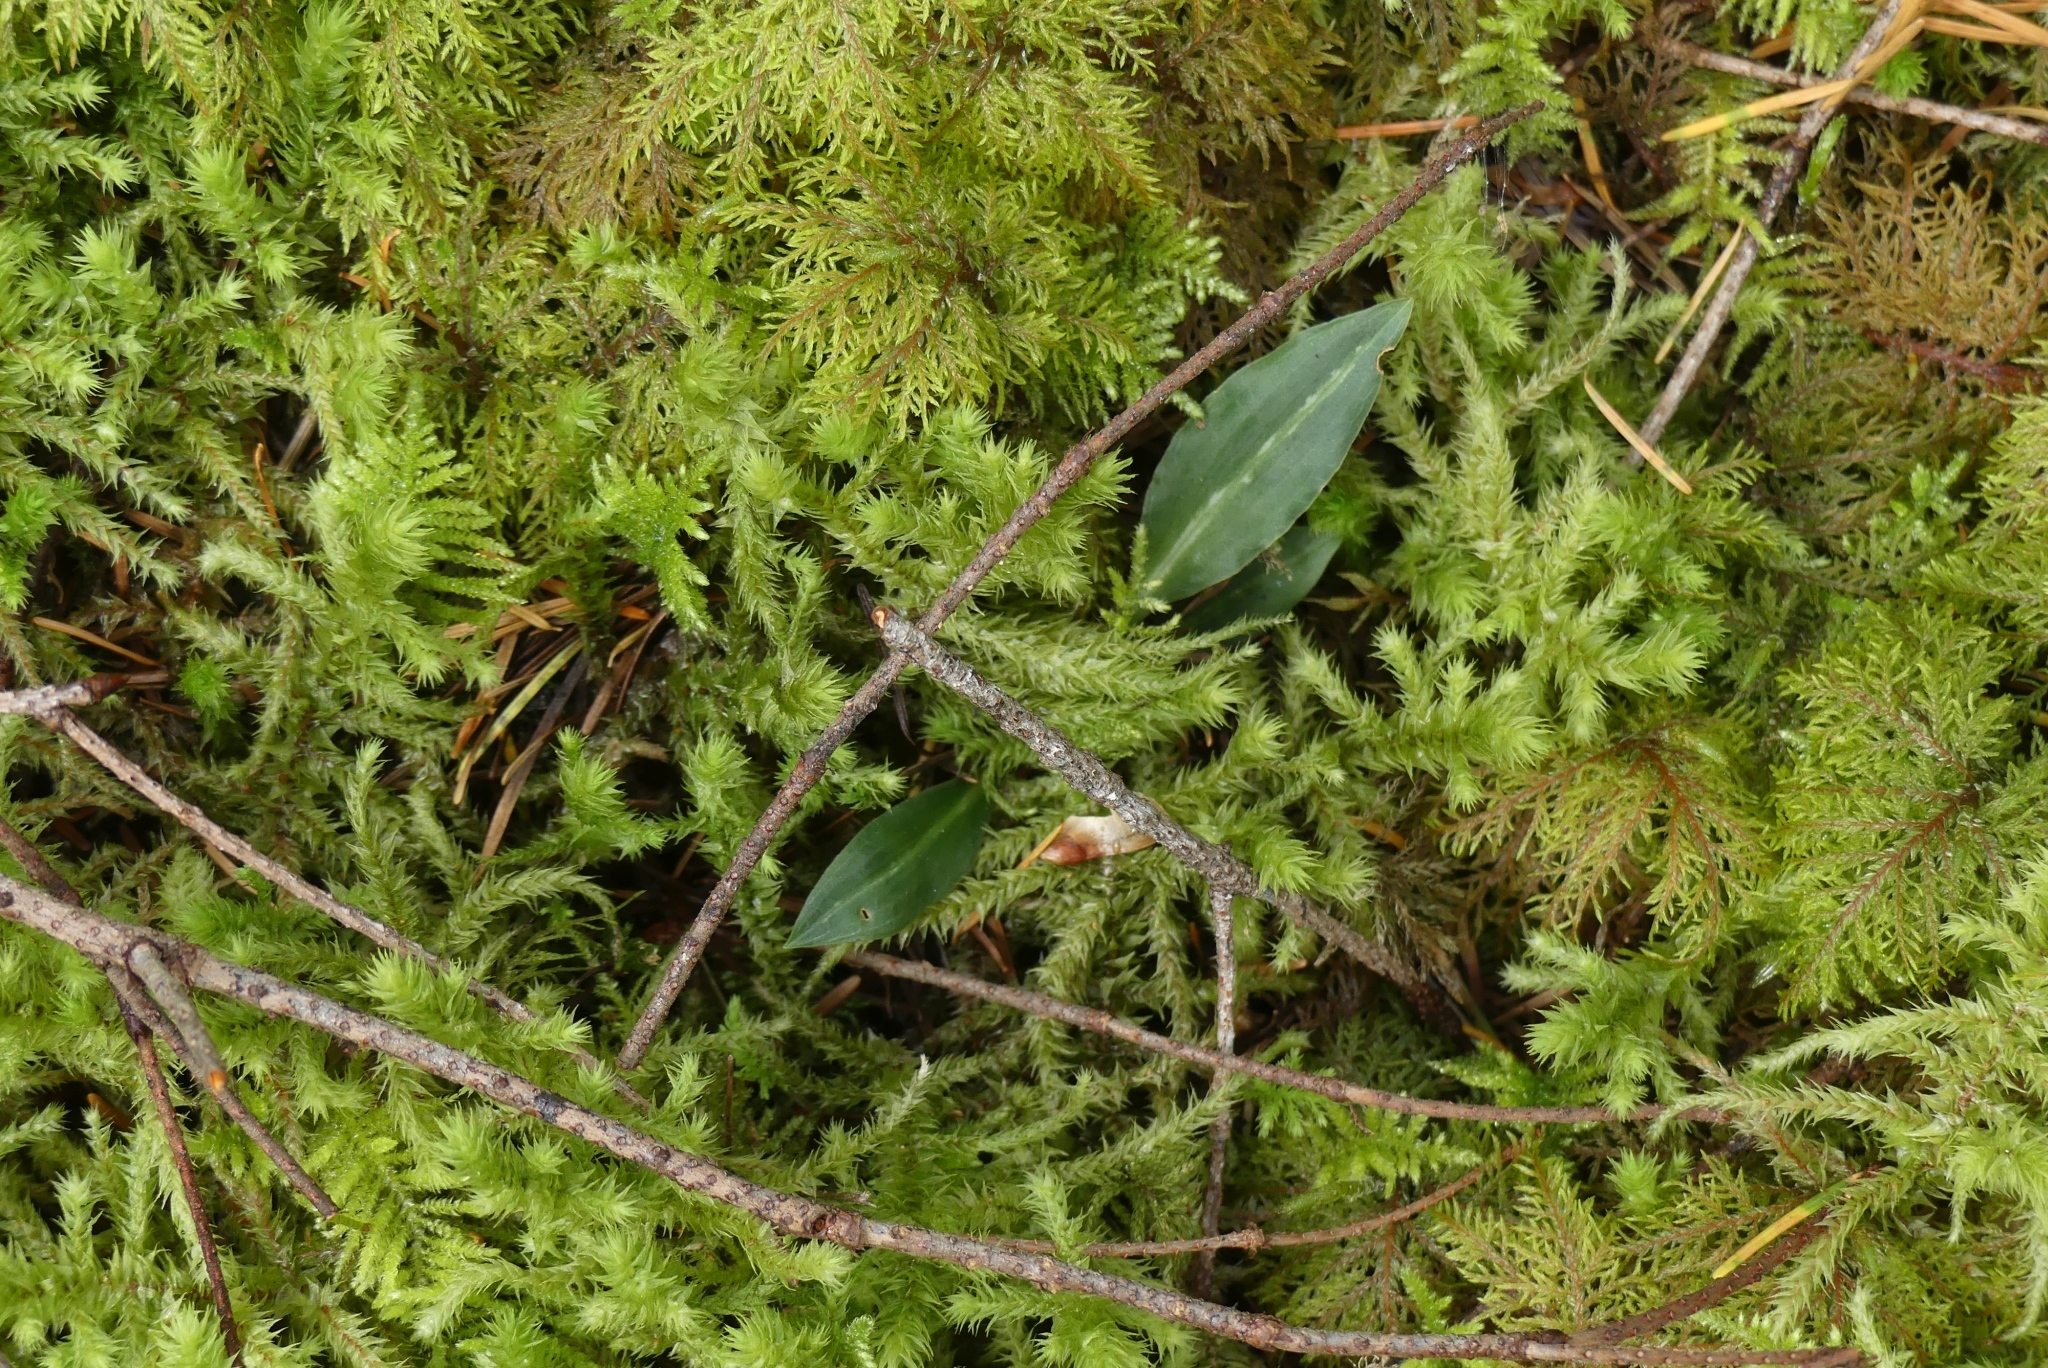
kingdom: Plantae
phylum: Tracheophyta
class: Liliopsida
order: Asparagales
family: Orchidaceae
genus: Goodyera
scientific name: Goodyera oblongifolia
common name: Giant rattlesnake-plantain
